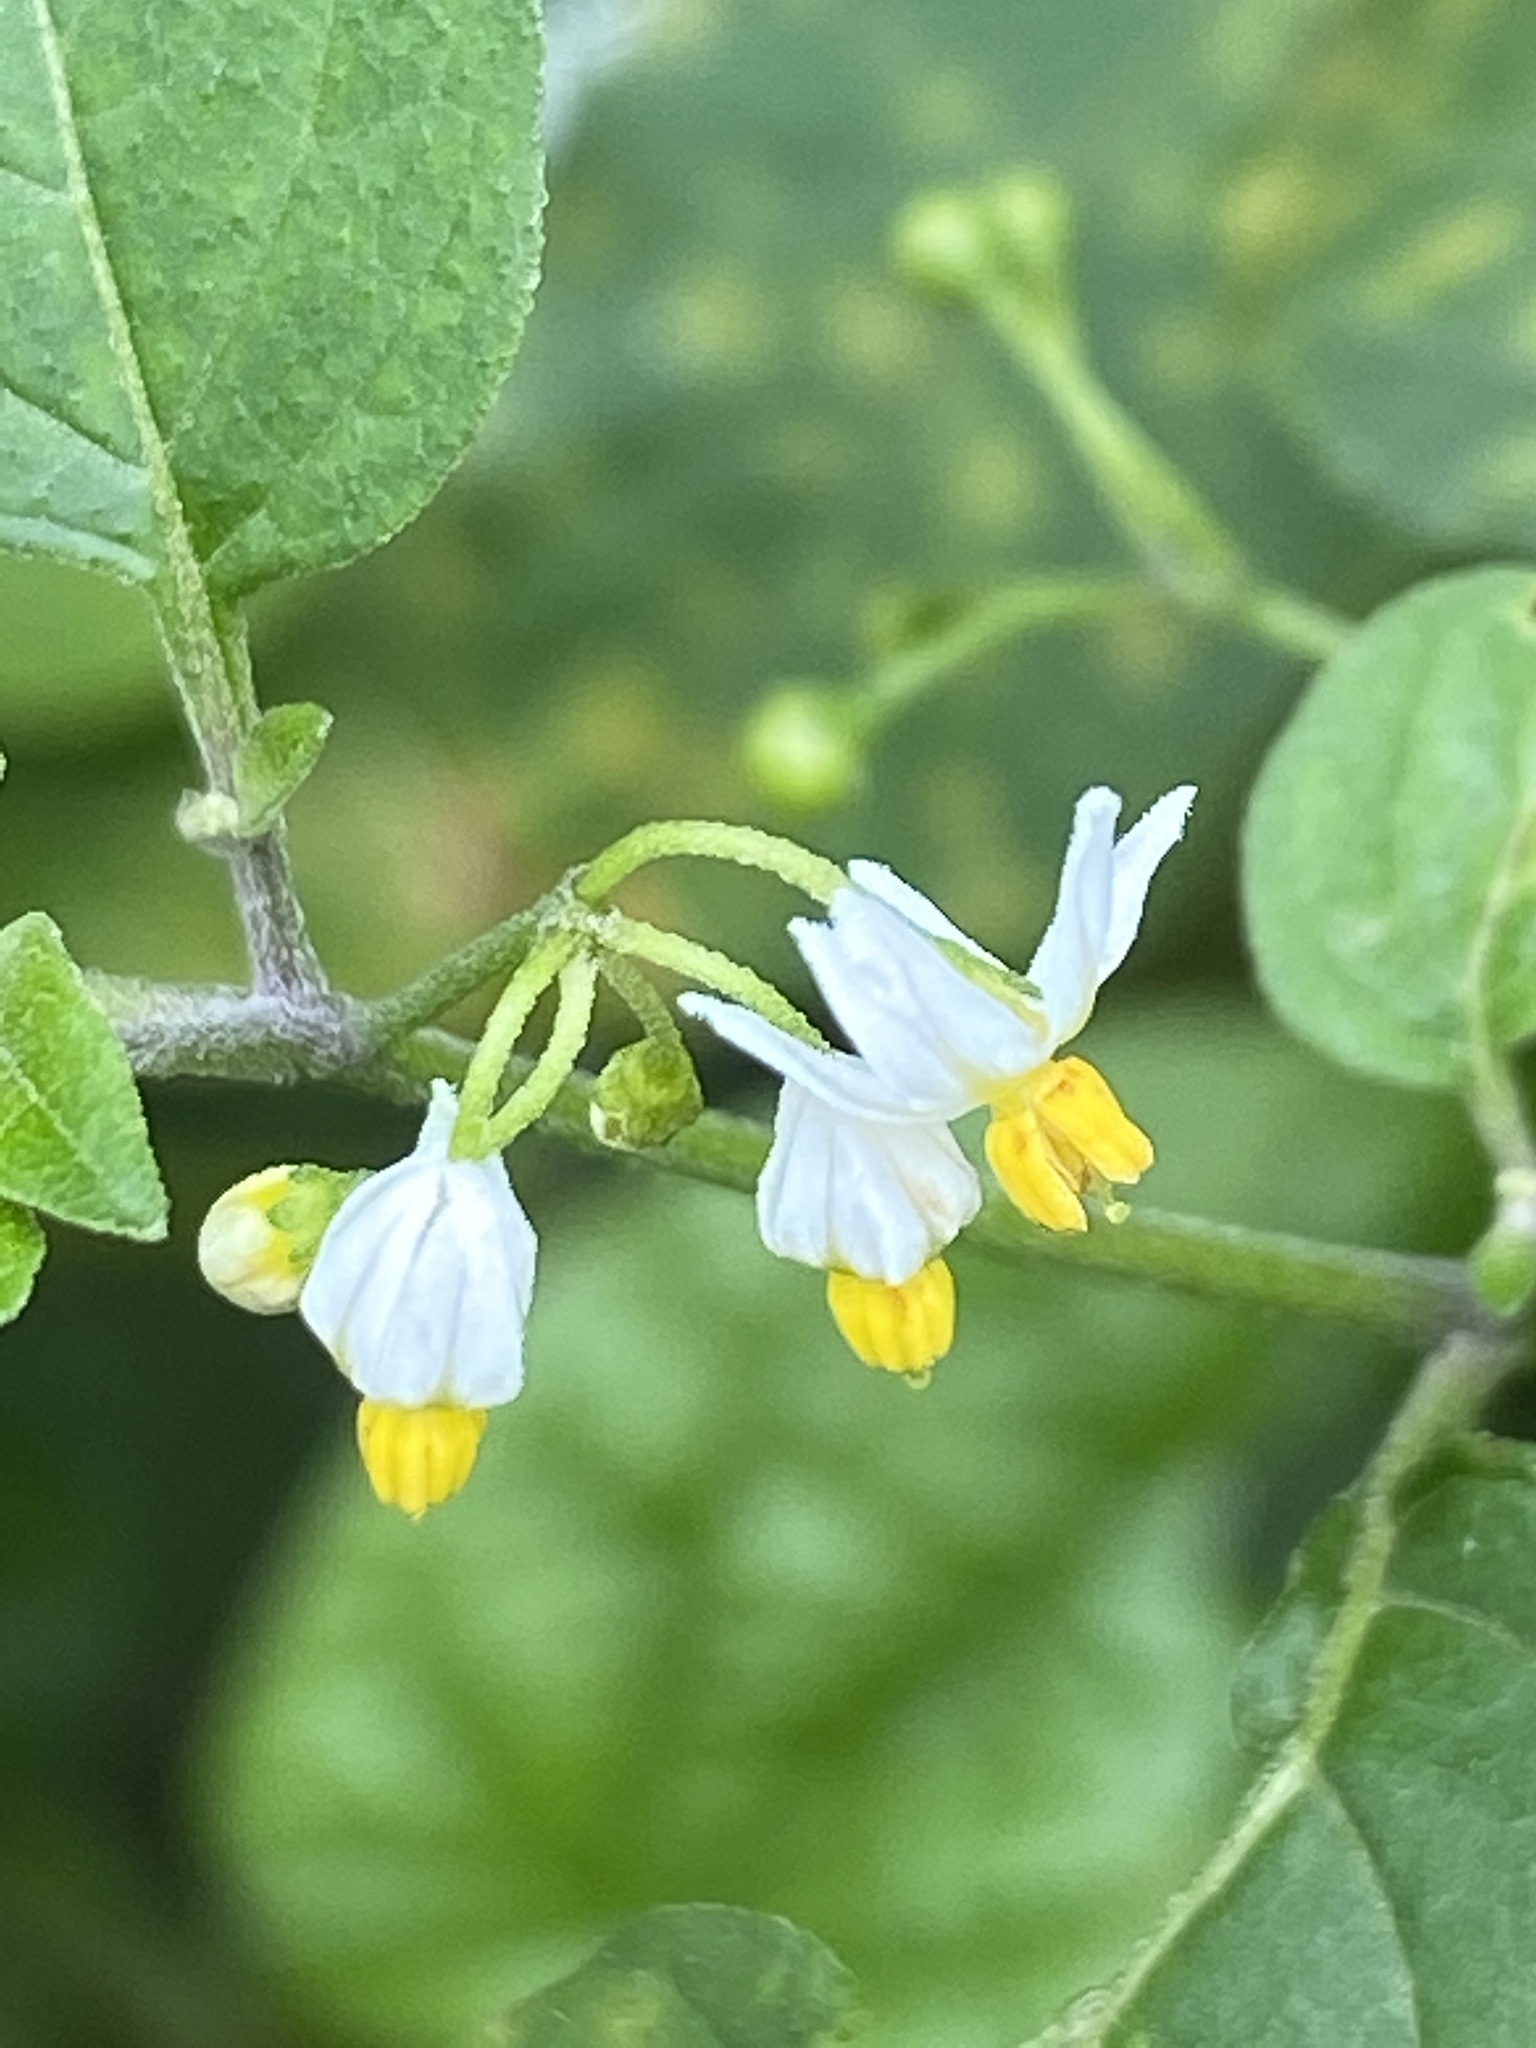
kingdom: Plantae
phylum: Tracheophyta
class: Magnoliopsida
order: Solanales
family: Solanaceae
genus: Solanum
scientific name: Solanum americanum
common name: American black nightshade
